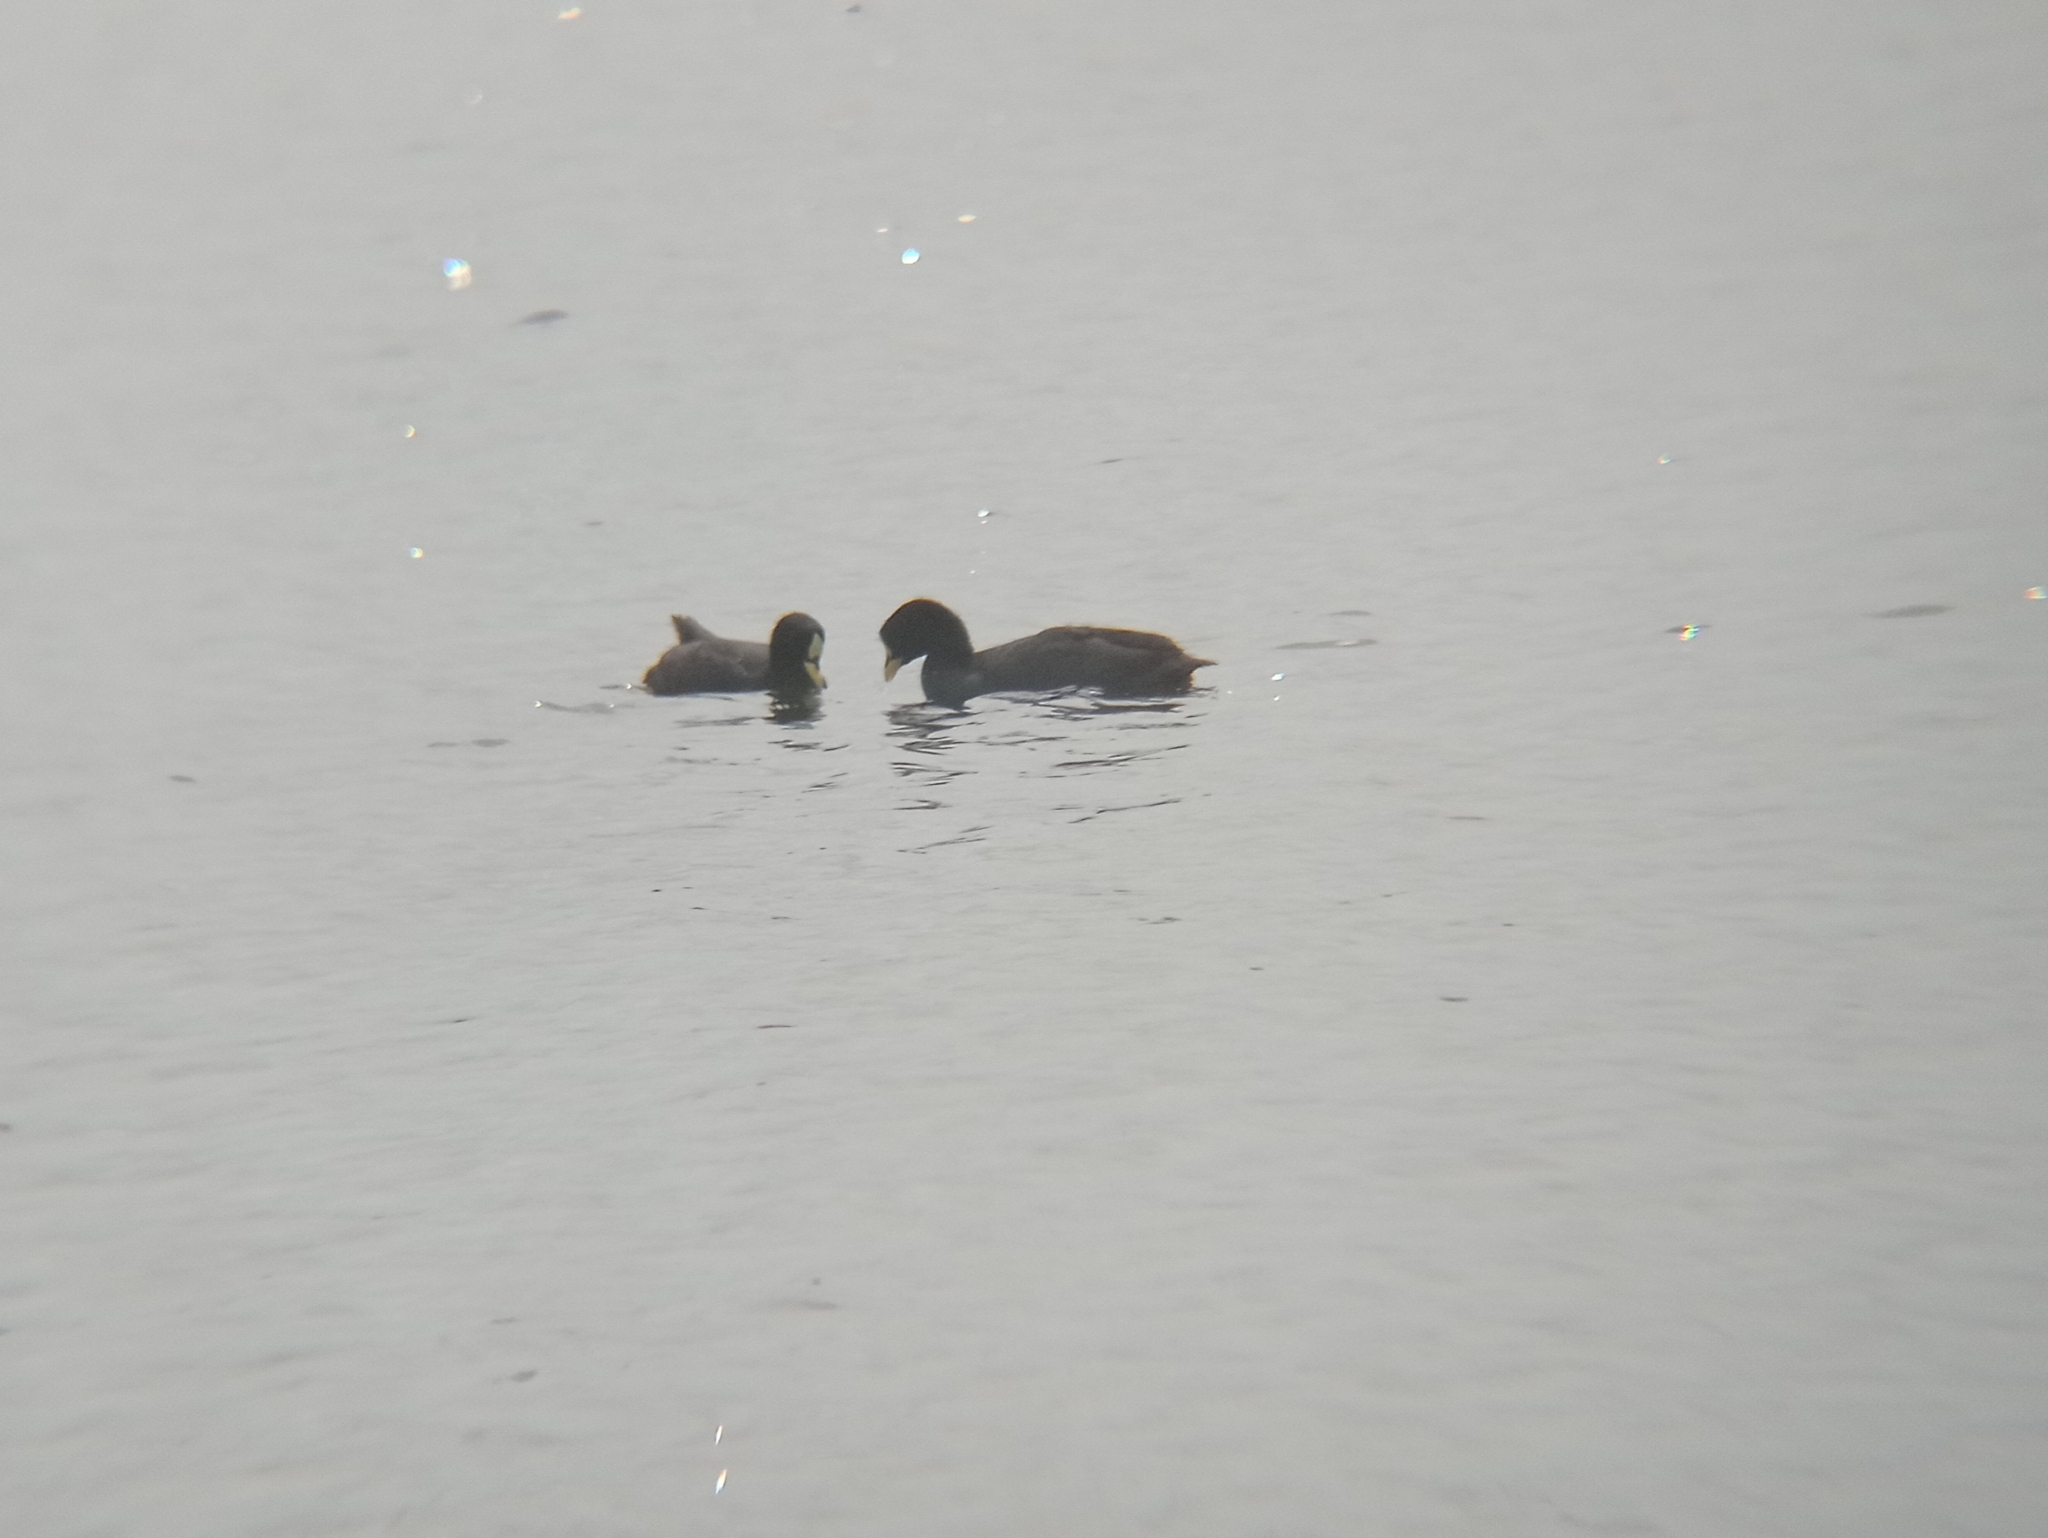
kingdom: Animalia
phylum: Chordata
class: Aves
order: Gruiformes
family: Rallidae
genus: Fulica
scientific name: Fulica armillata
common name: Red-gartered coot
